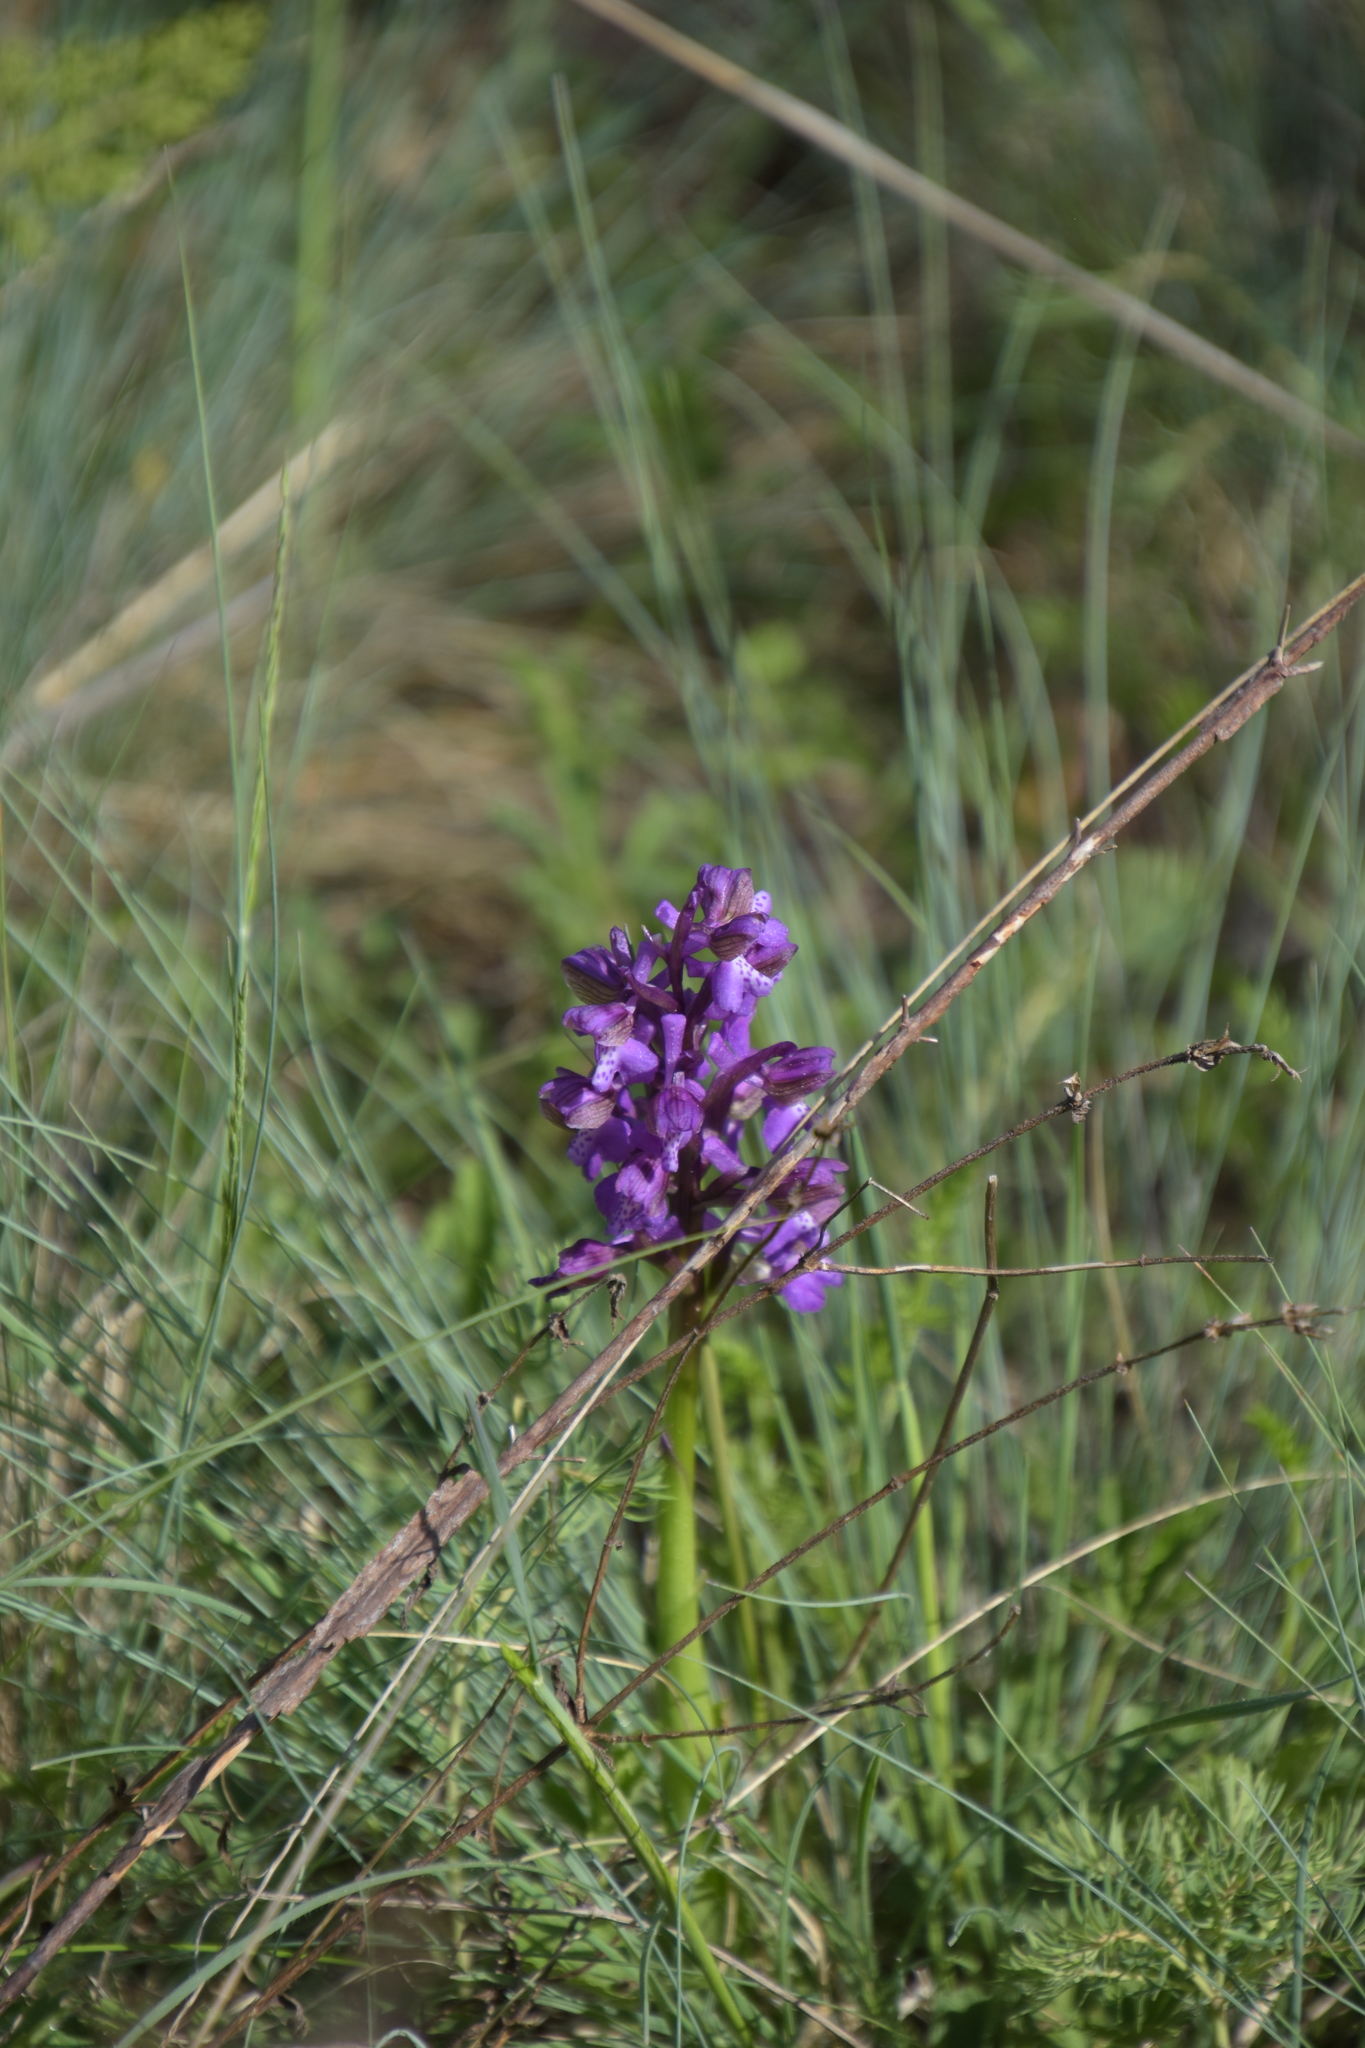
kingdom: Plantae
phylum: Tracheophyta
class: Liliopsida
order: Asparagales
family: Orchidaceae
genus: Anacamptis
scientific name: Anacamptis morio
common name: Green-winged orchid
